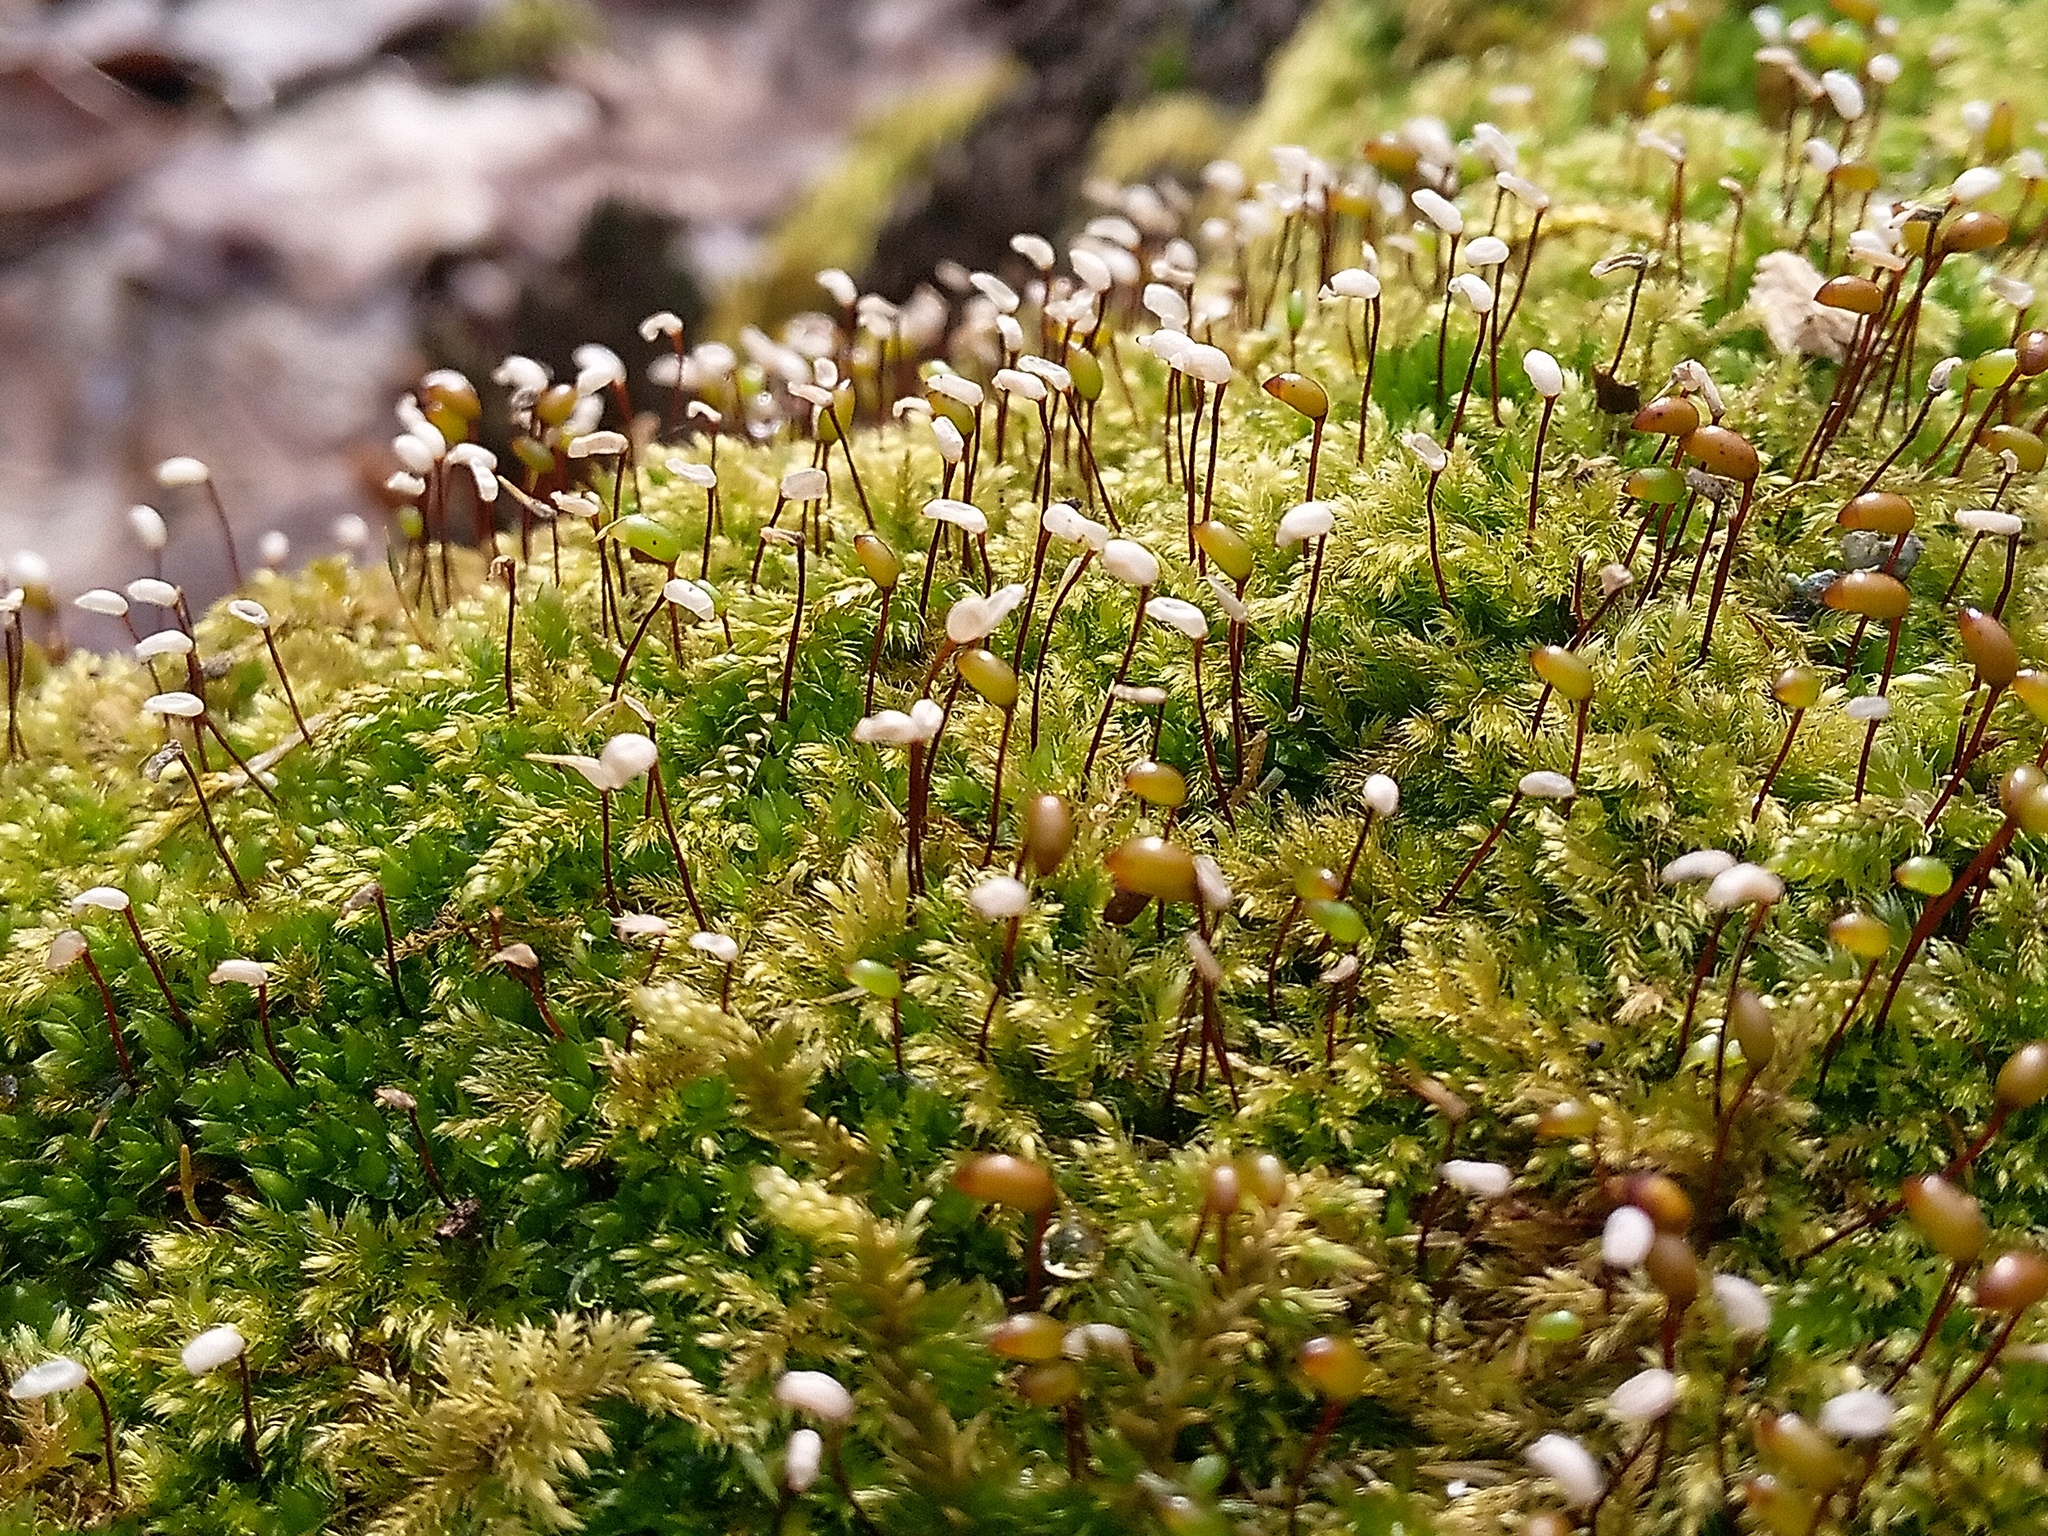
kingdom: Plantae
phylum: Bryophyta
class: Bryopsida
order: Hypnales
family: Brachytheciaceae
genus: Brachytheciastrum
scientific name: Brachytheciastrum velutinum
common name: Velvet feather-moss
